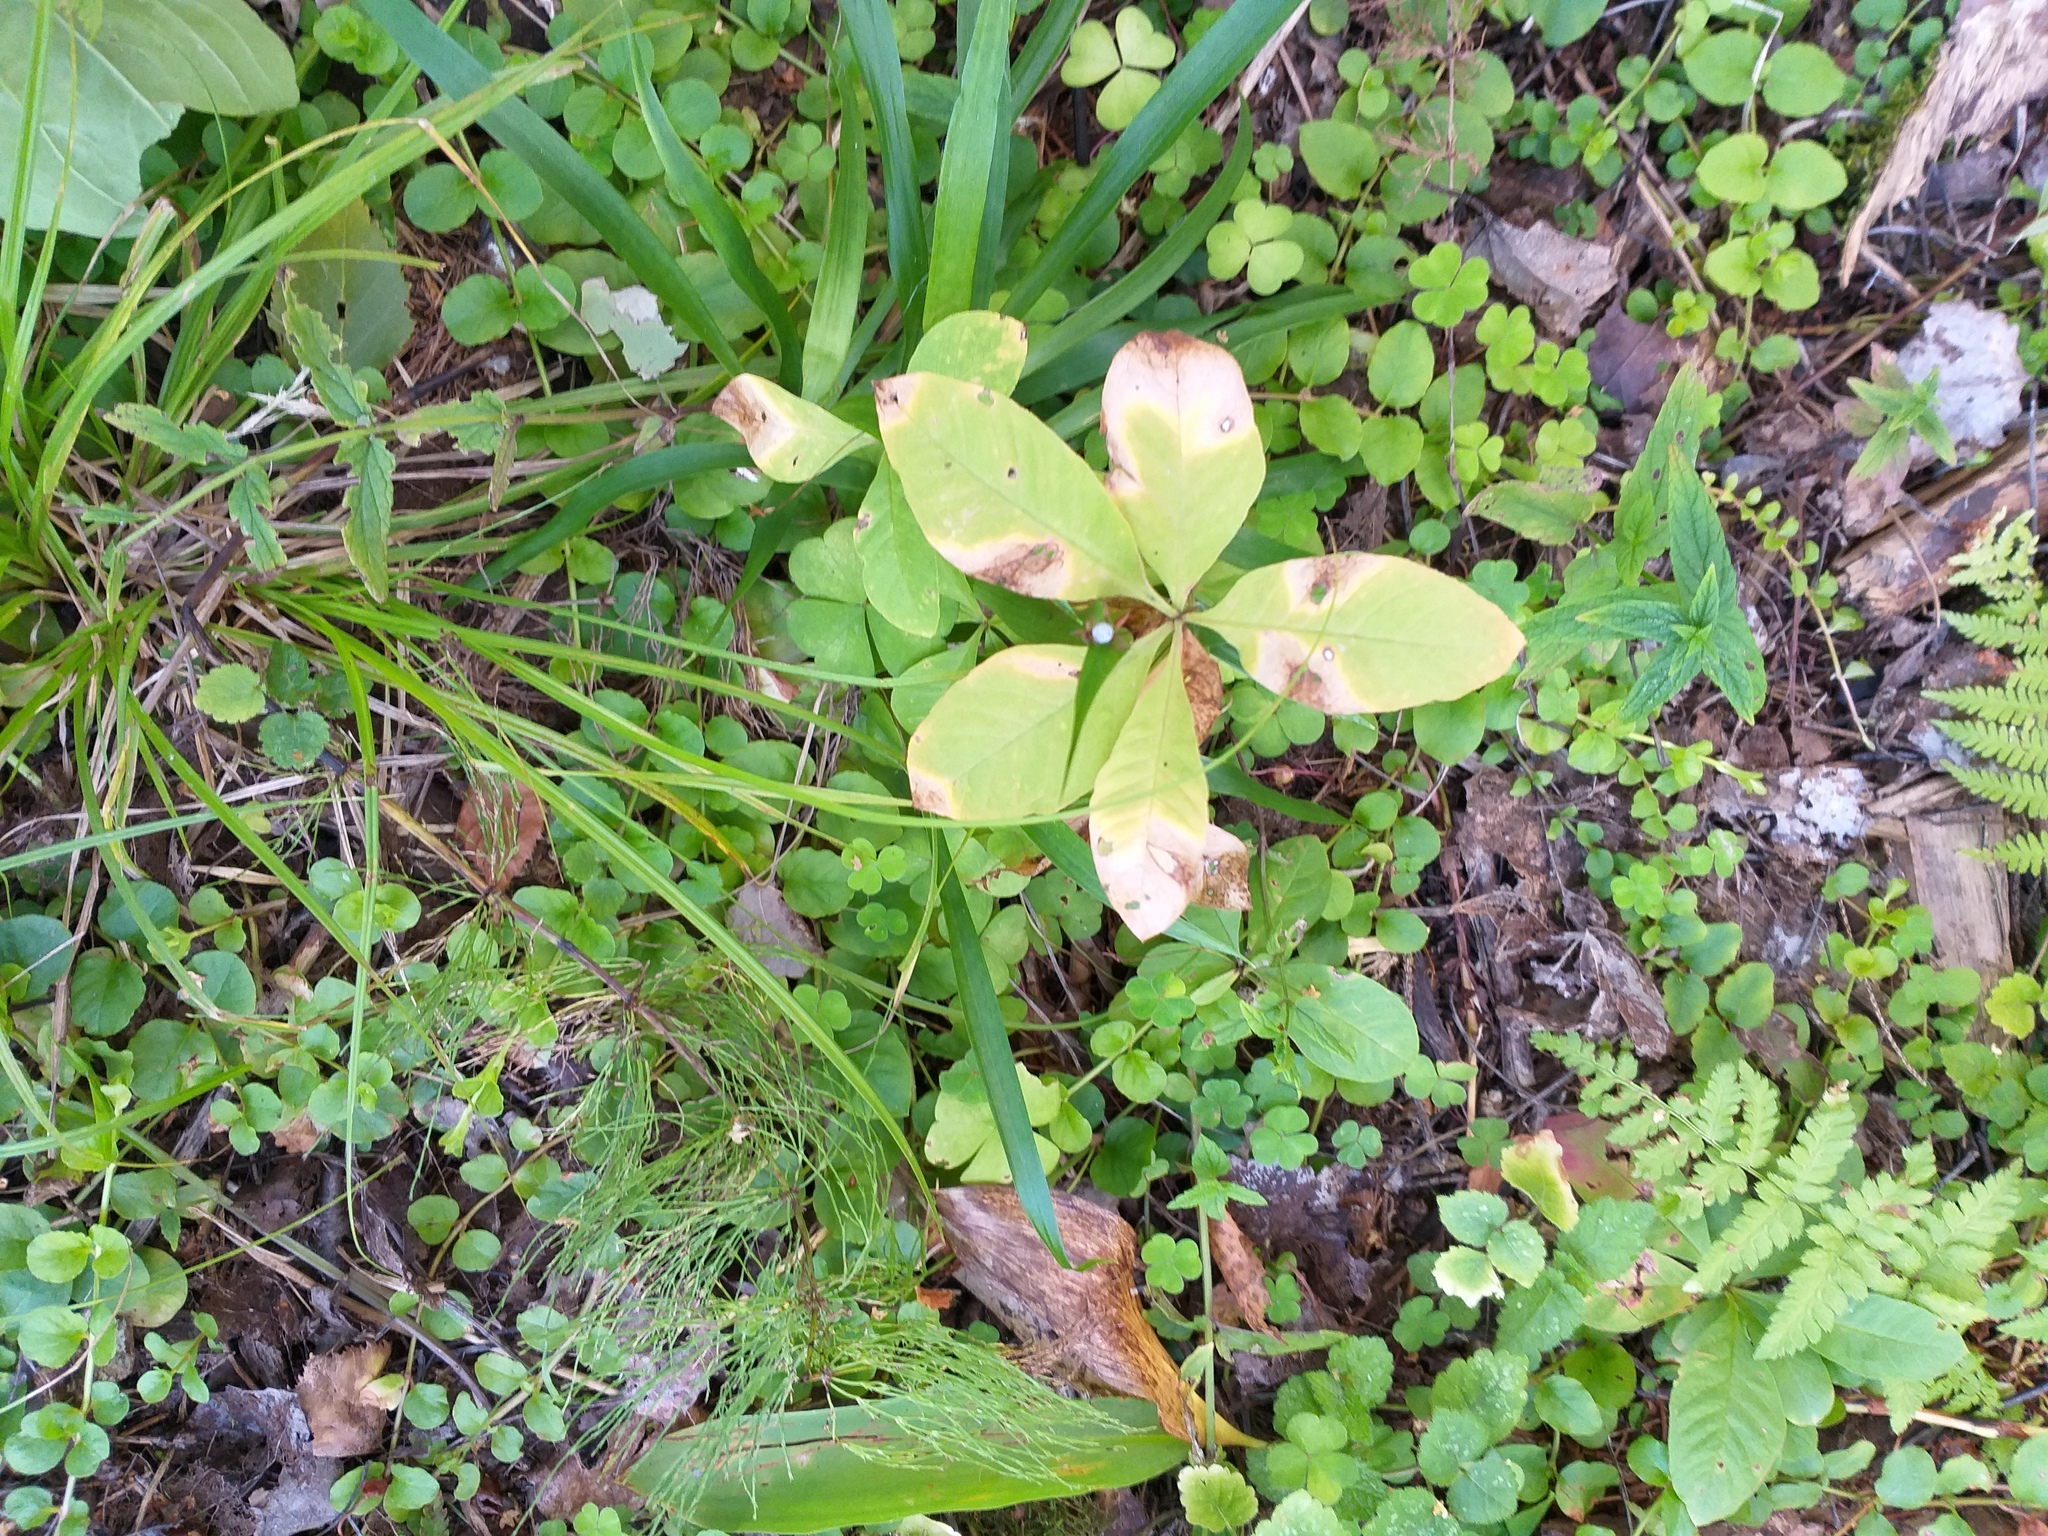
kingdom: Plantae
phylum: Tracheophyta
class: Magnoliopsida
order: Ericales
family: Primulaceae
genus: Lysimachia
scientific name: Lysimachia europaea
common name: Arctic starflower
